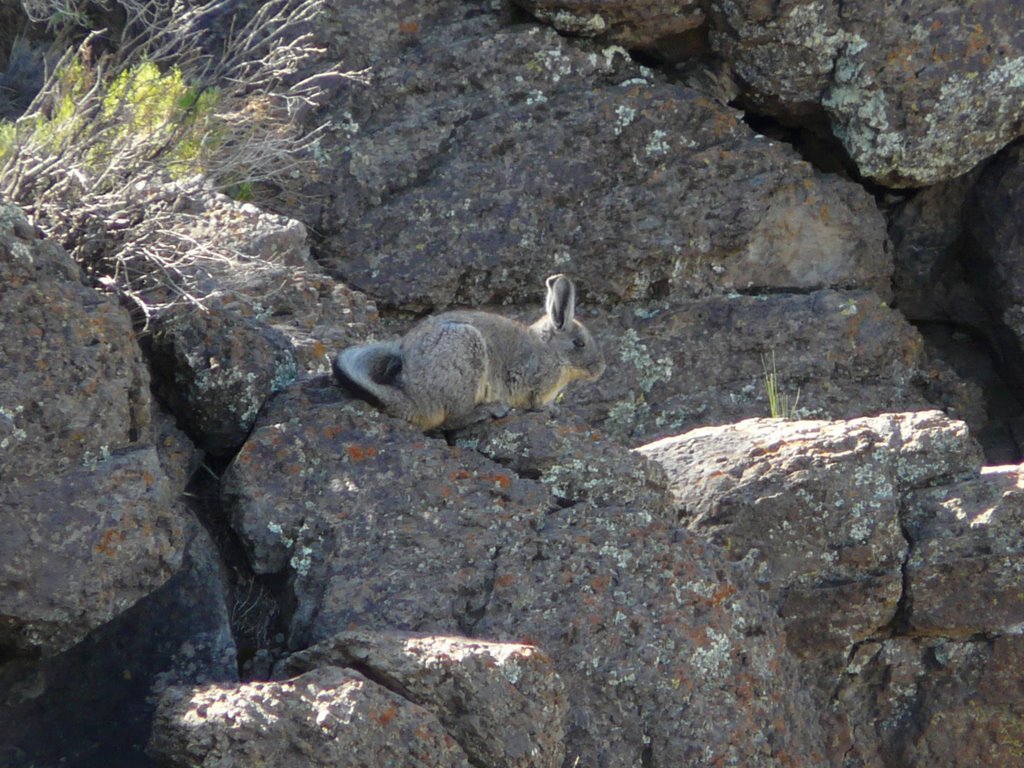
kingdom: Animalia
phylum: Chordata
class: Mammalia
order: Rodentia
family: Chinchillidae
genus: Lagidium
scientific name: Lagidium viscacia
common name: Southern viscacha
